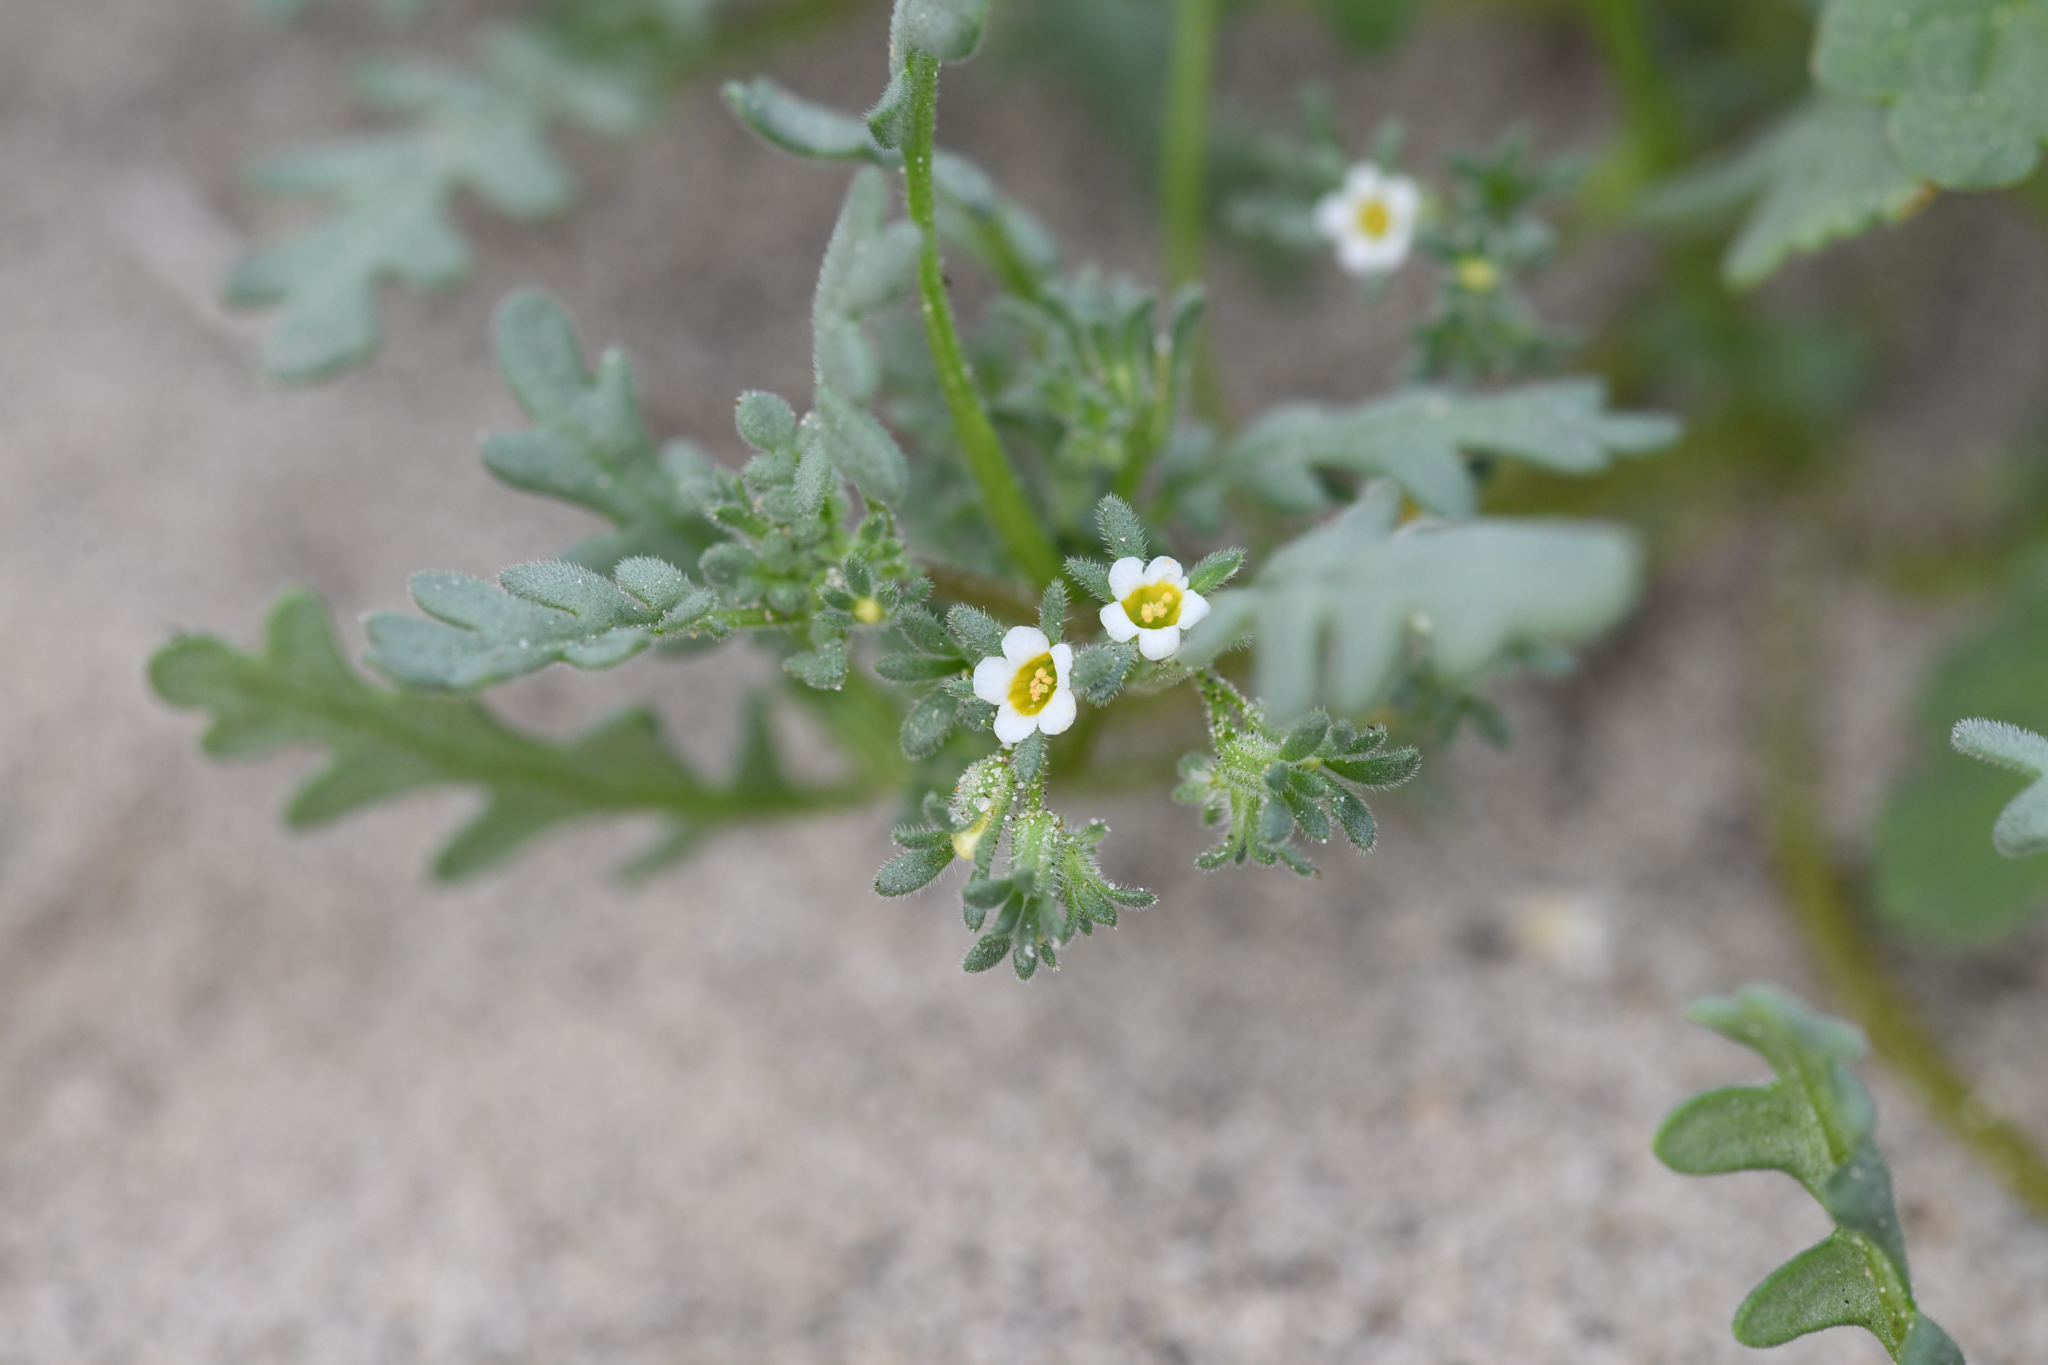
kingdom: Plantae
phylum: Tracheophyta
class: Magnoliopsida
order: Boraginales
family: Hydrophyllaceae
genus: Phacelia
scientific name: Phacelia ivesiana
